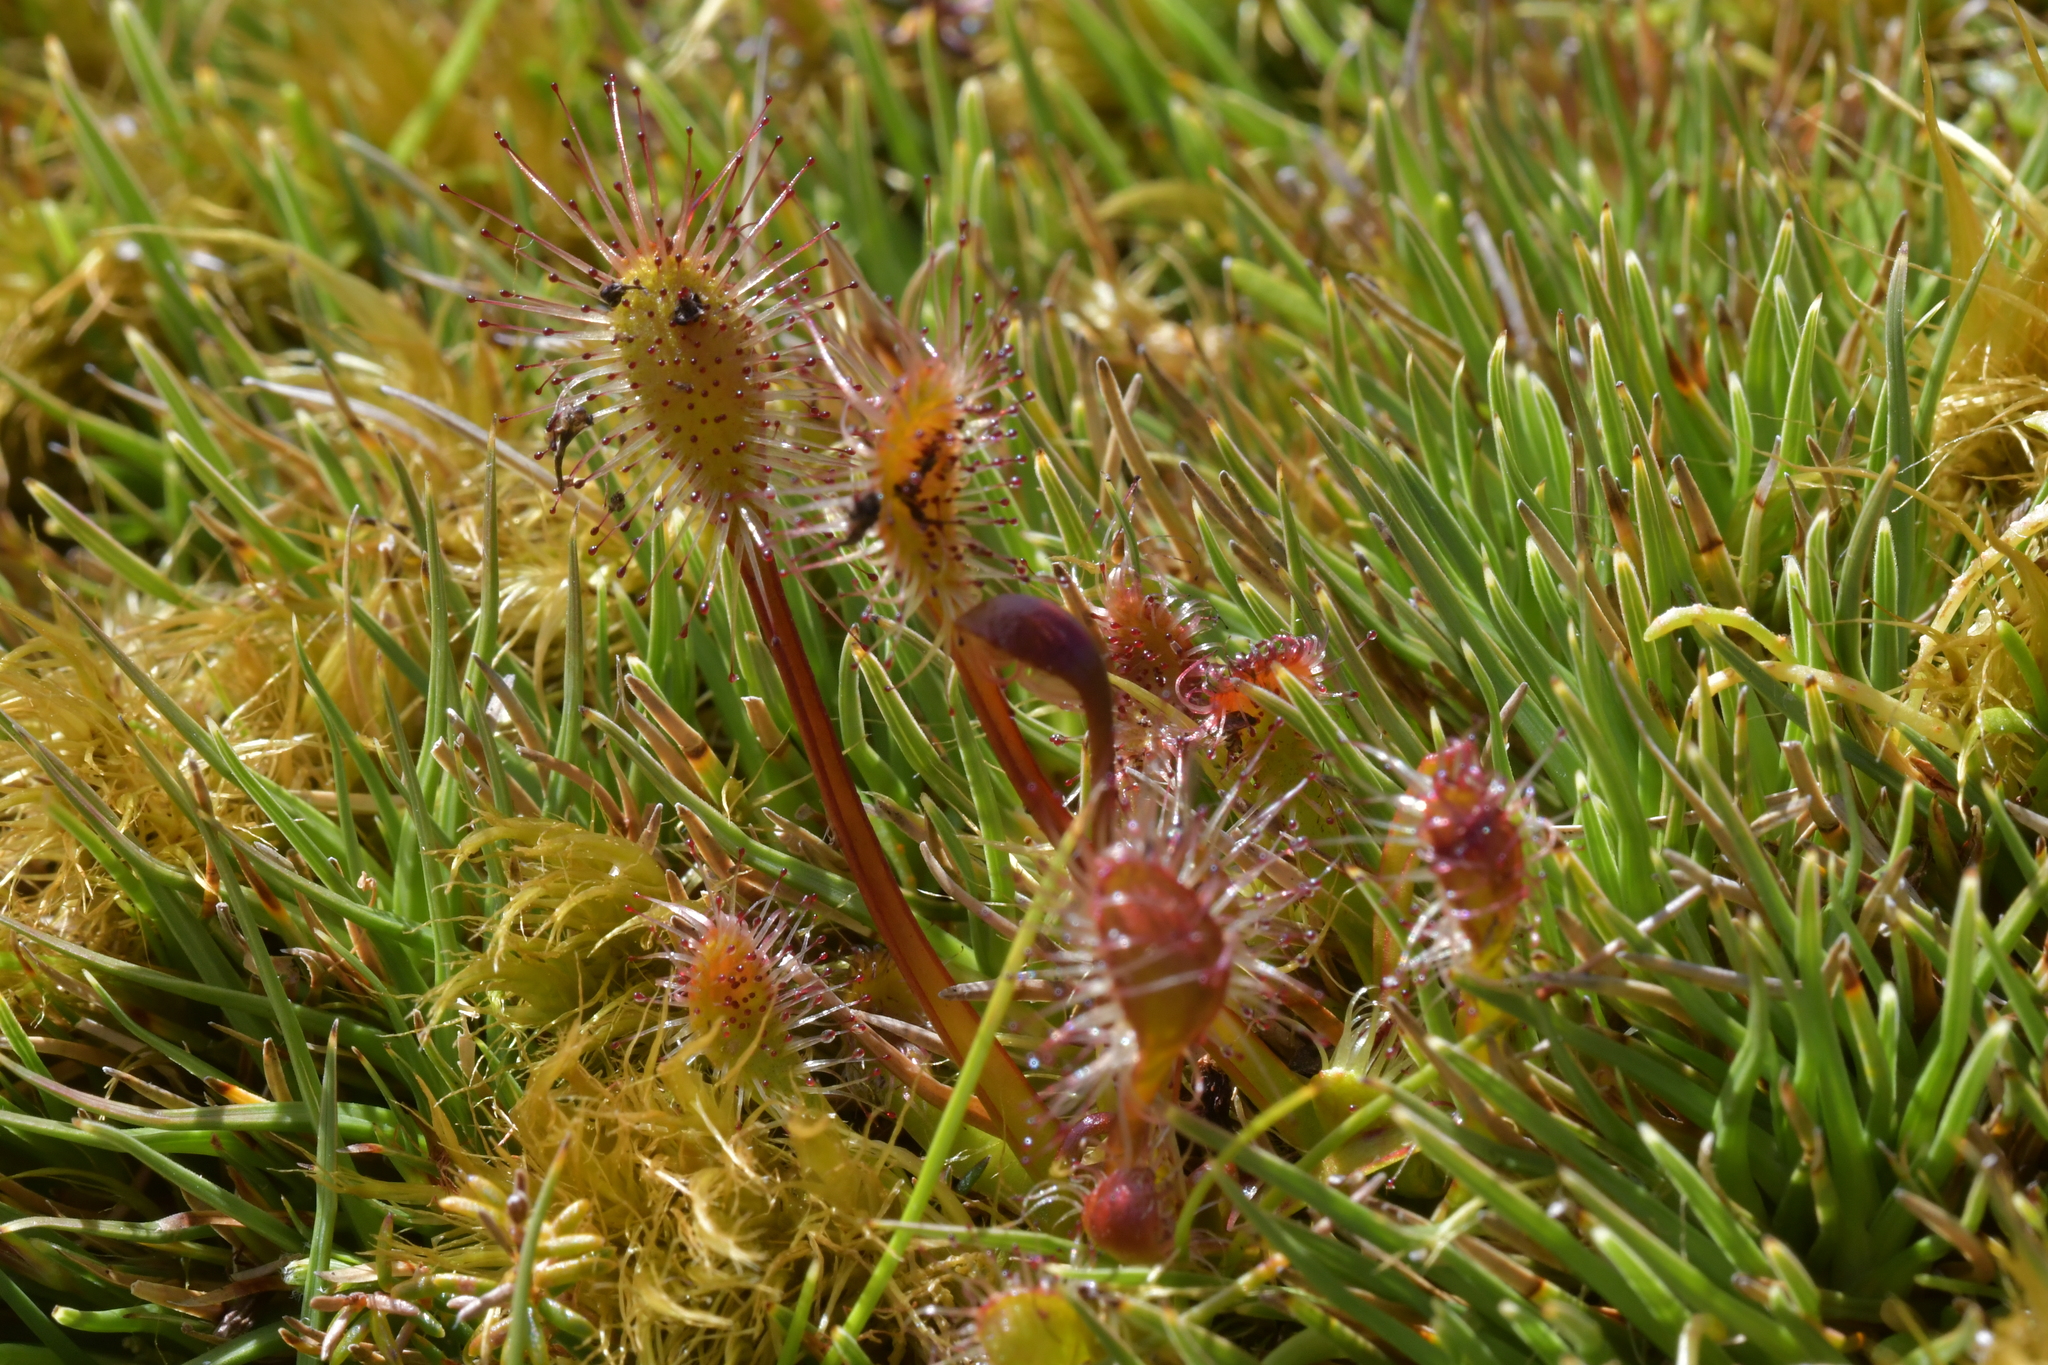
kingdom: Plantae
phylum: Tracheophyta
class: Magnoliopsida
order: Caryophyllales
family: Droseraceae
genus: Drosera
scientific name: Drosera stenopetala
